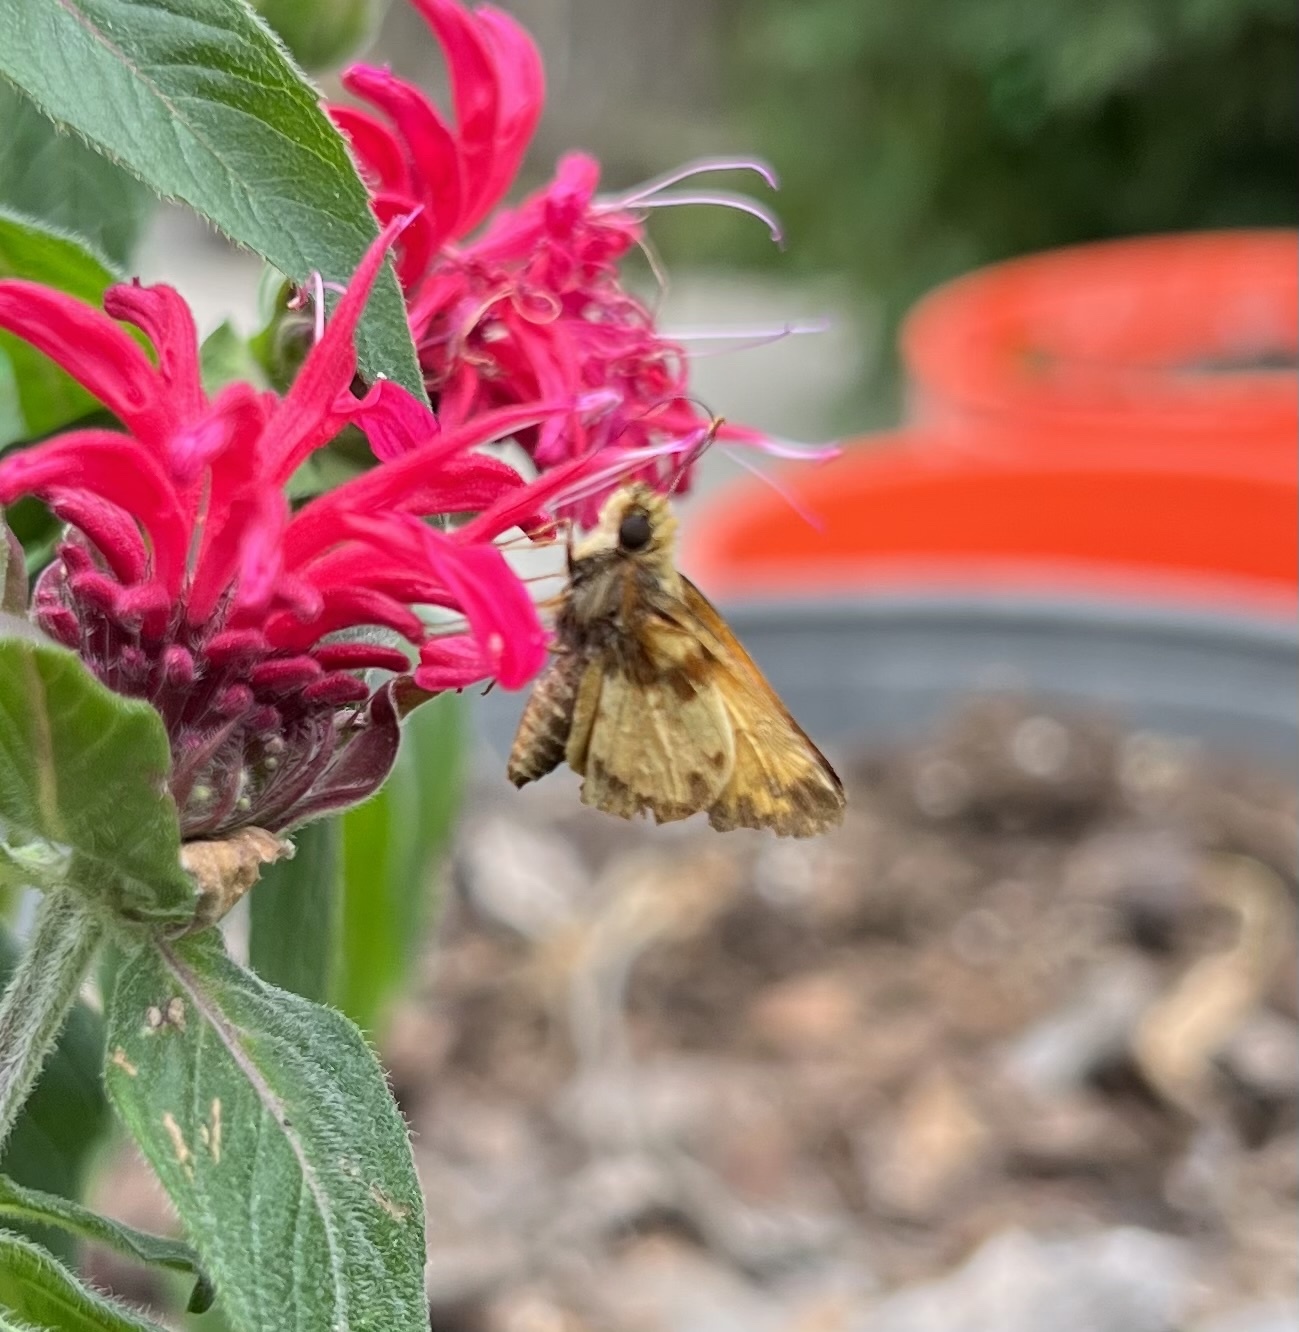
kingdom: Animalia
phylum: Arthropoda
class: Insecta
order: Lepidoptera
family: Hesperiidae
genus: Lon
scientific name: Lon zabulon
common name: Zabulon skipper
